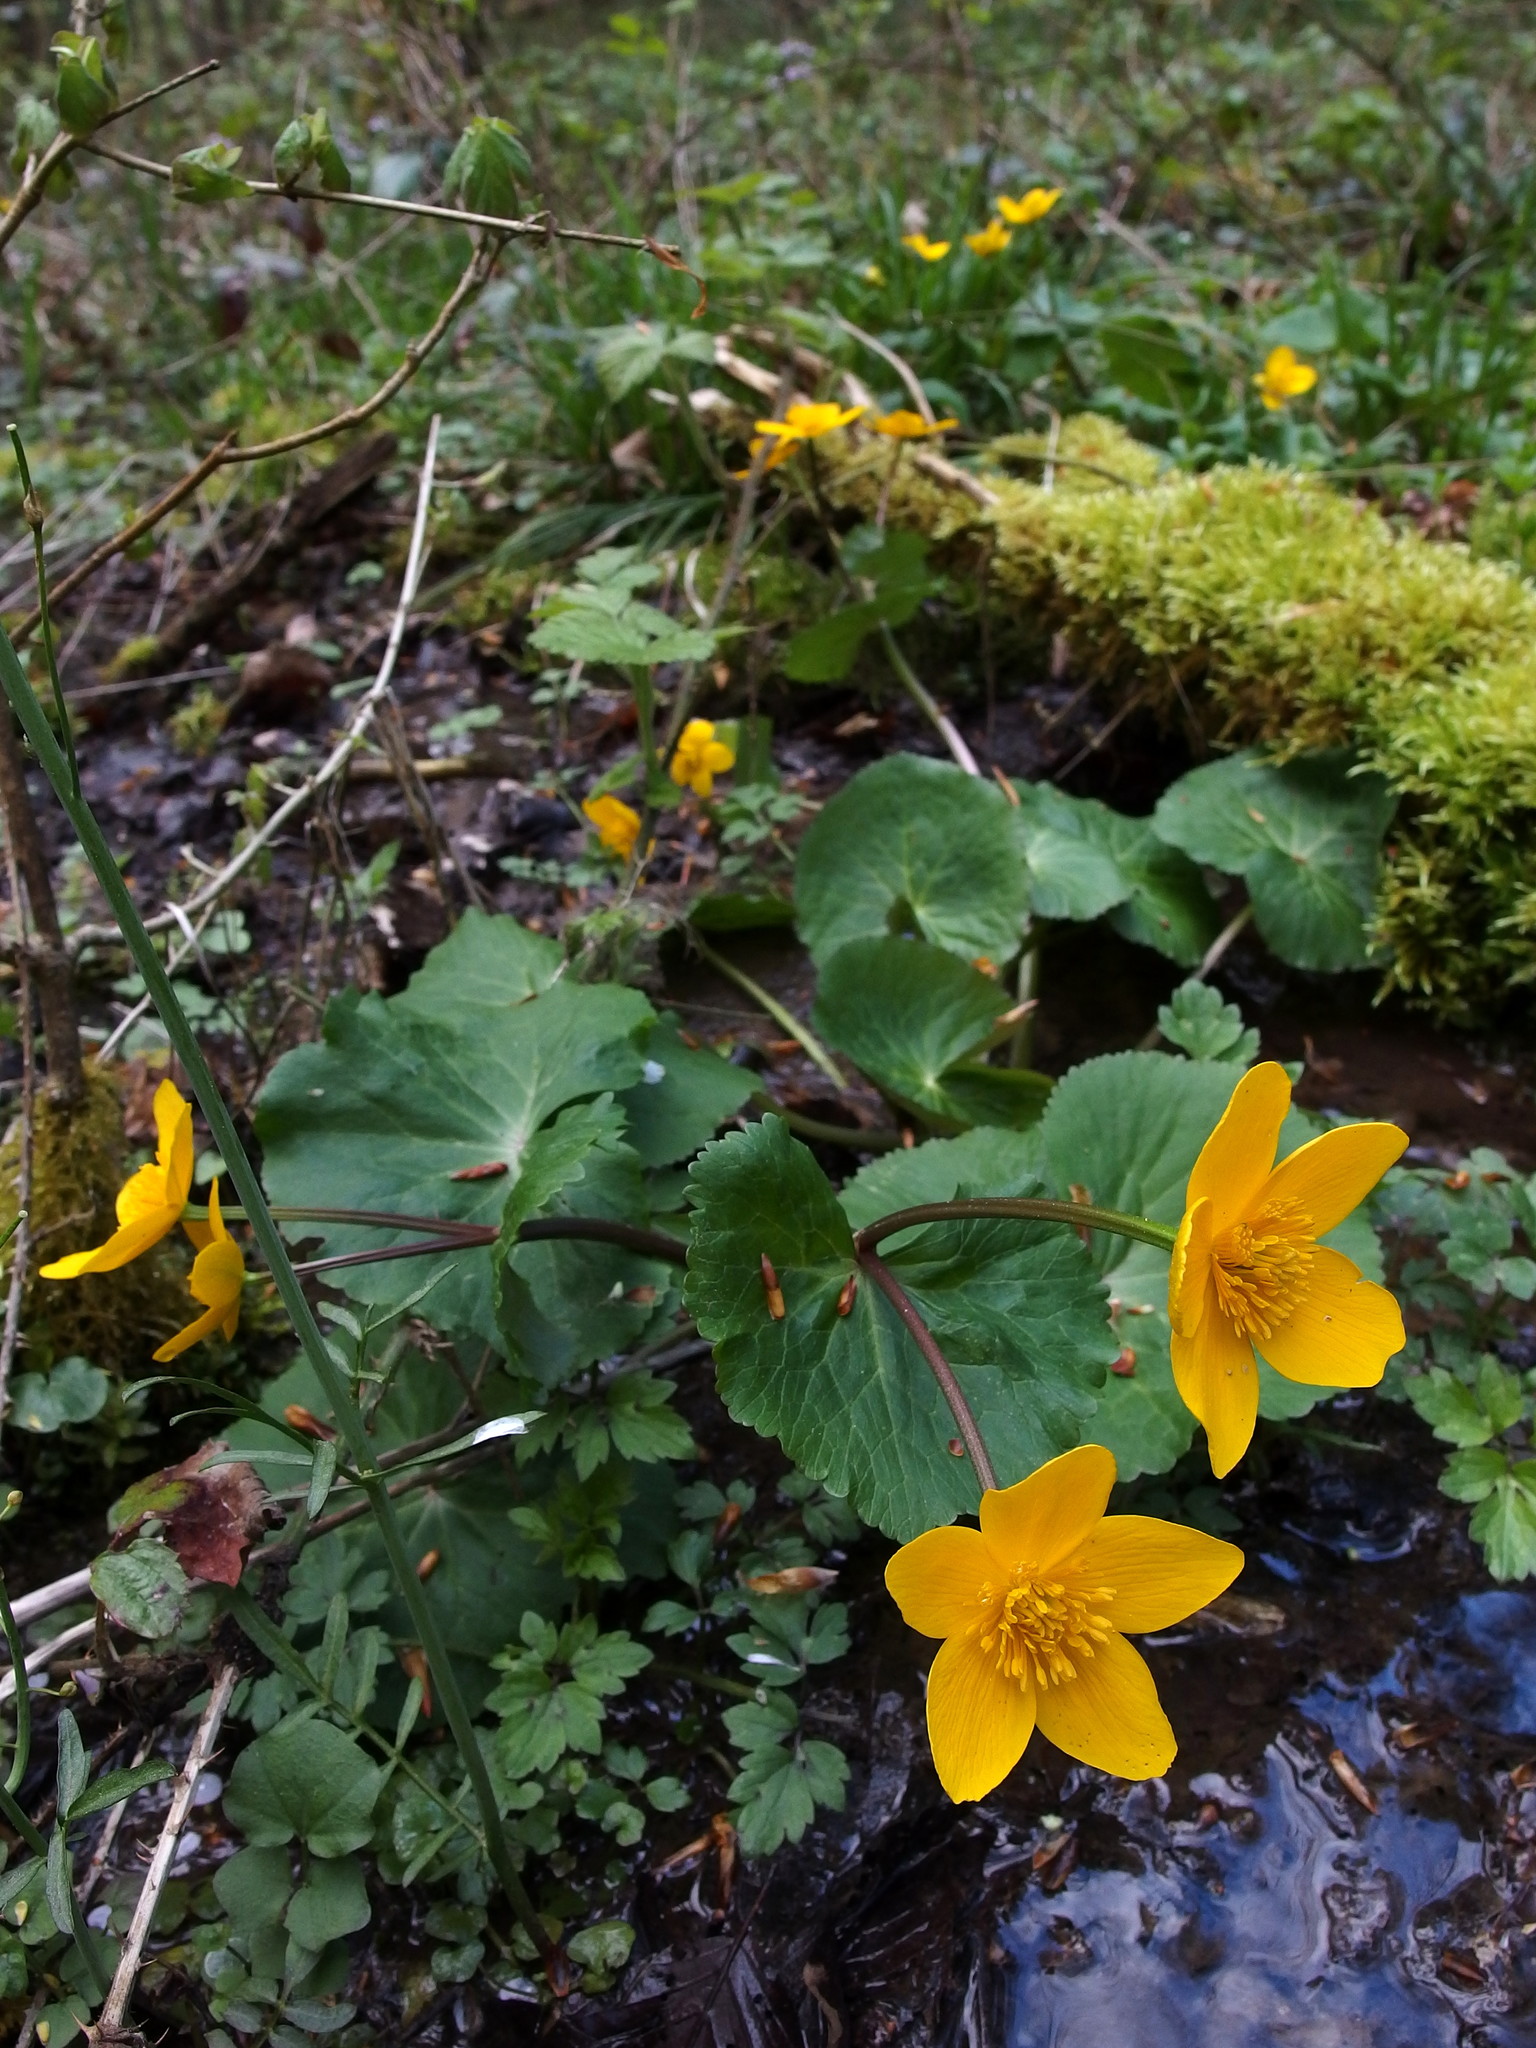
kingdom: Plantae
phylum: Tracheophyta
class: Magnoliopsida
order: Ranunculales
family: Ranunculaceae
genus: Caltha
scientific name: Caltha palustris
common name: Marsh marigold
